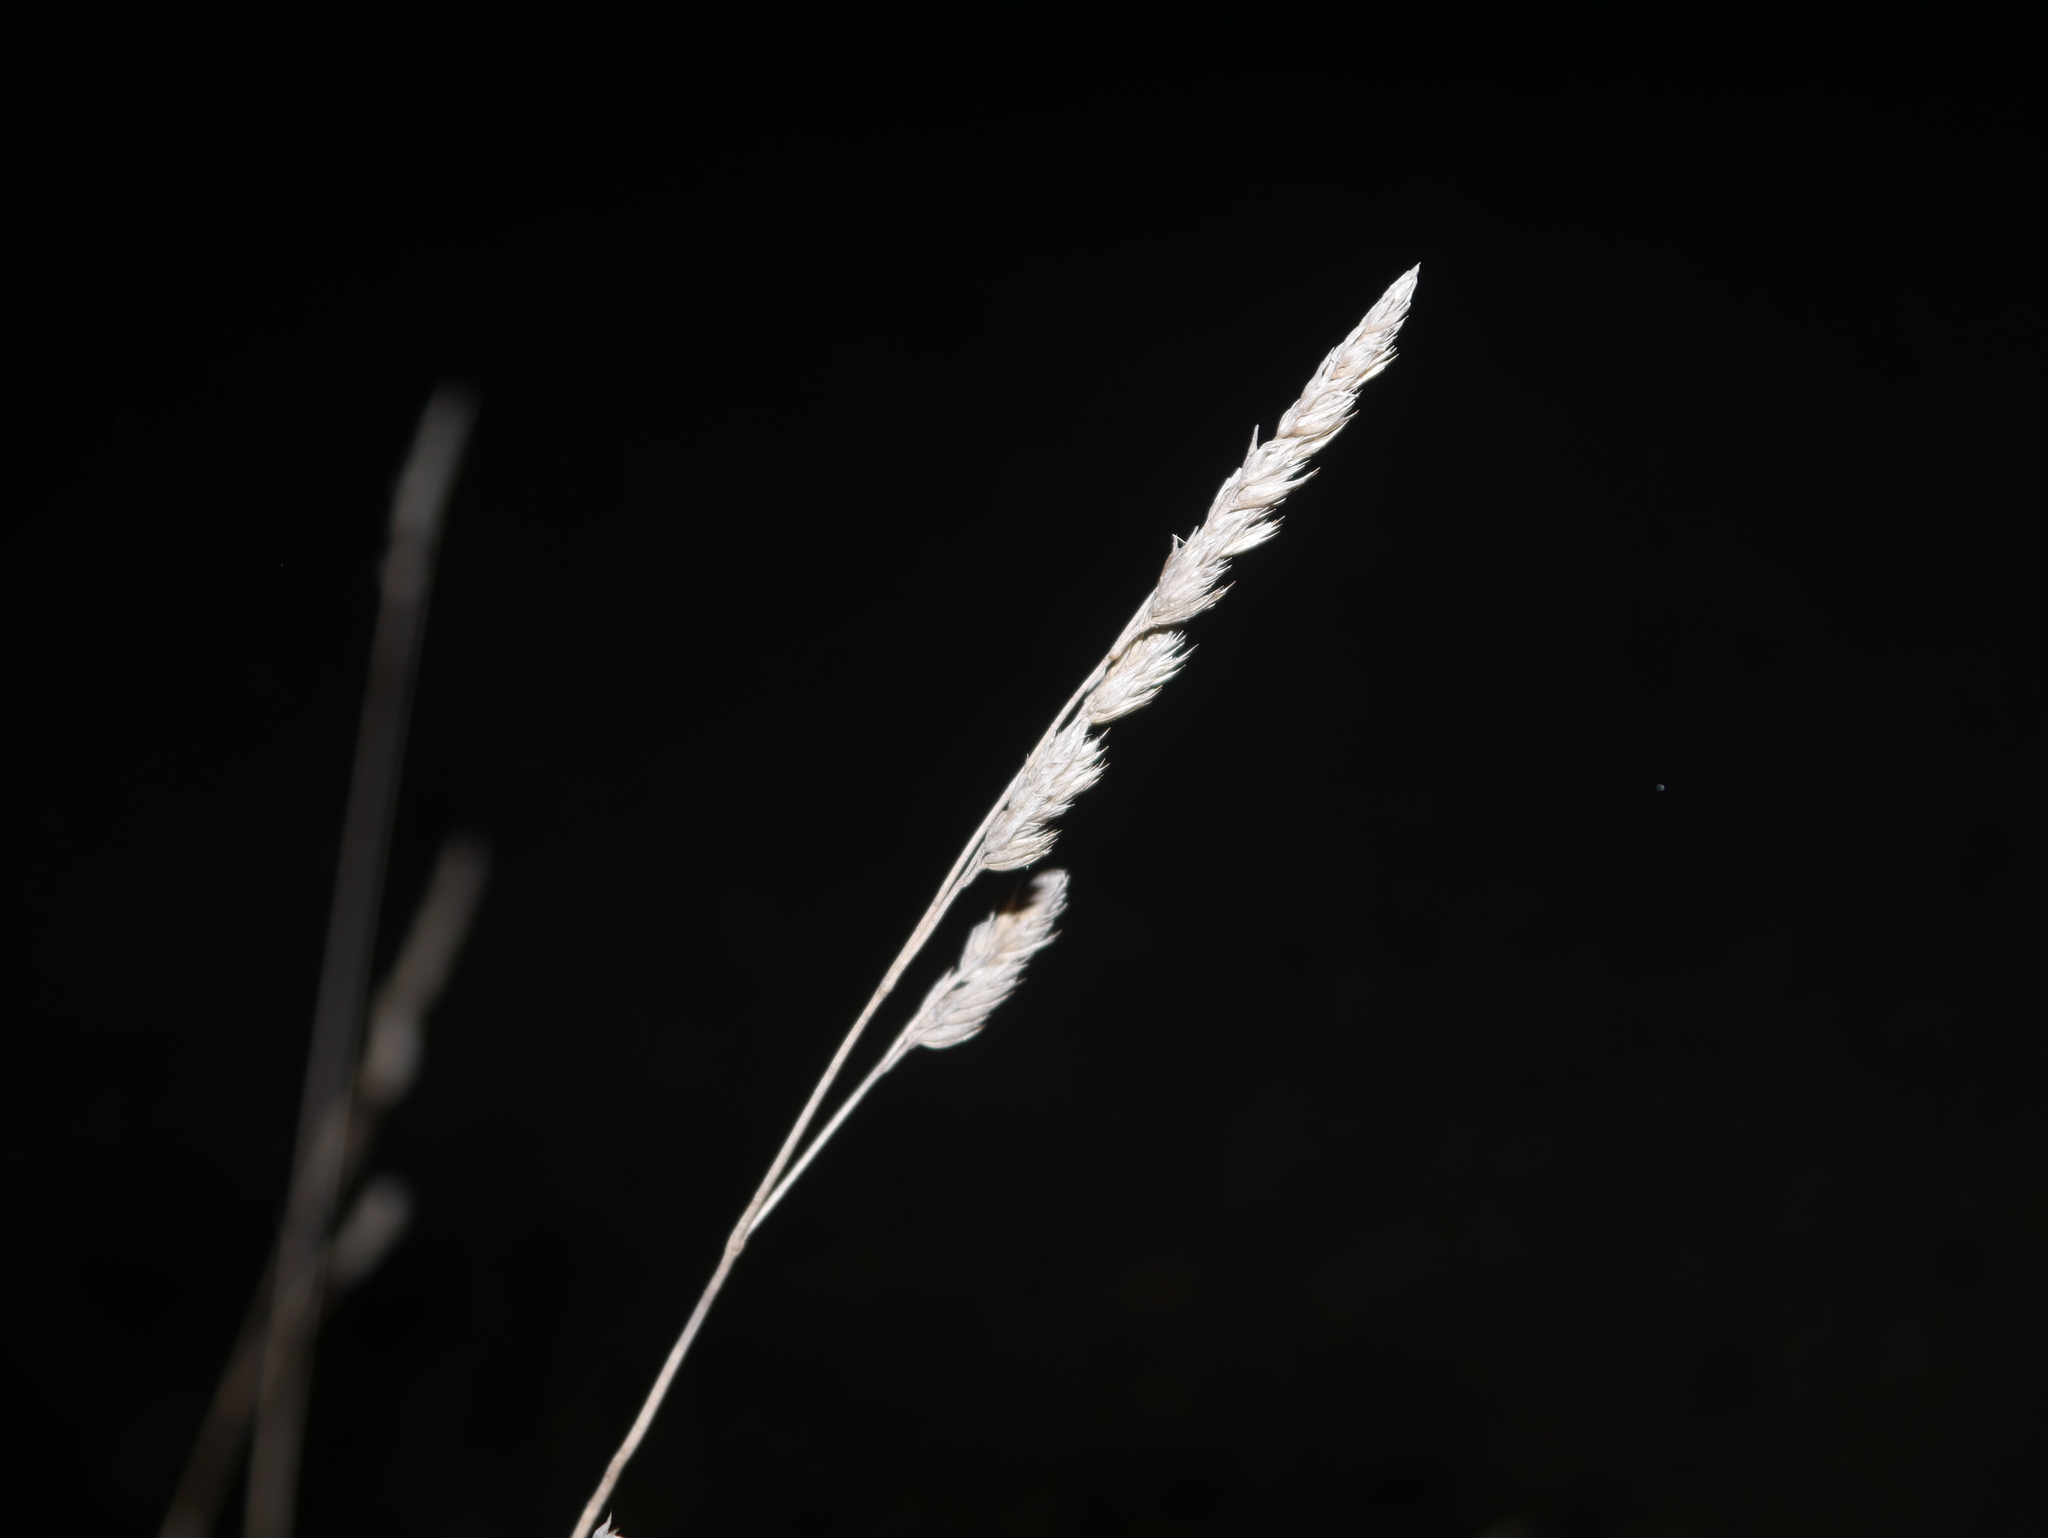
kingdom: Plantae
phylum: Tracheophyta
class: Liliopsida
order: Poales
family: Poaceae
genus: Dactylis
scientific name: Dactylis glomerata
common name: Orchardgrass
